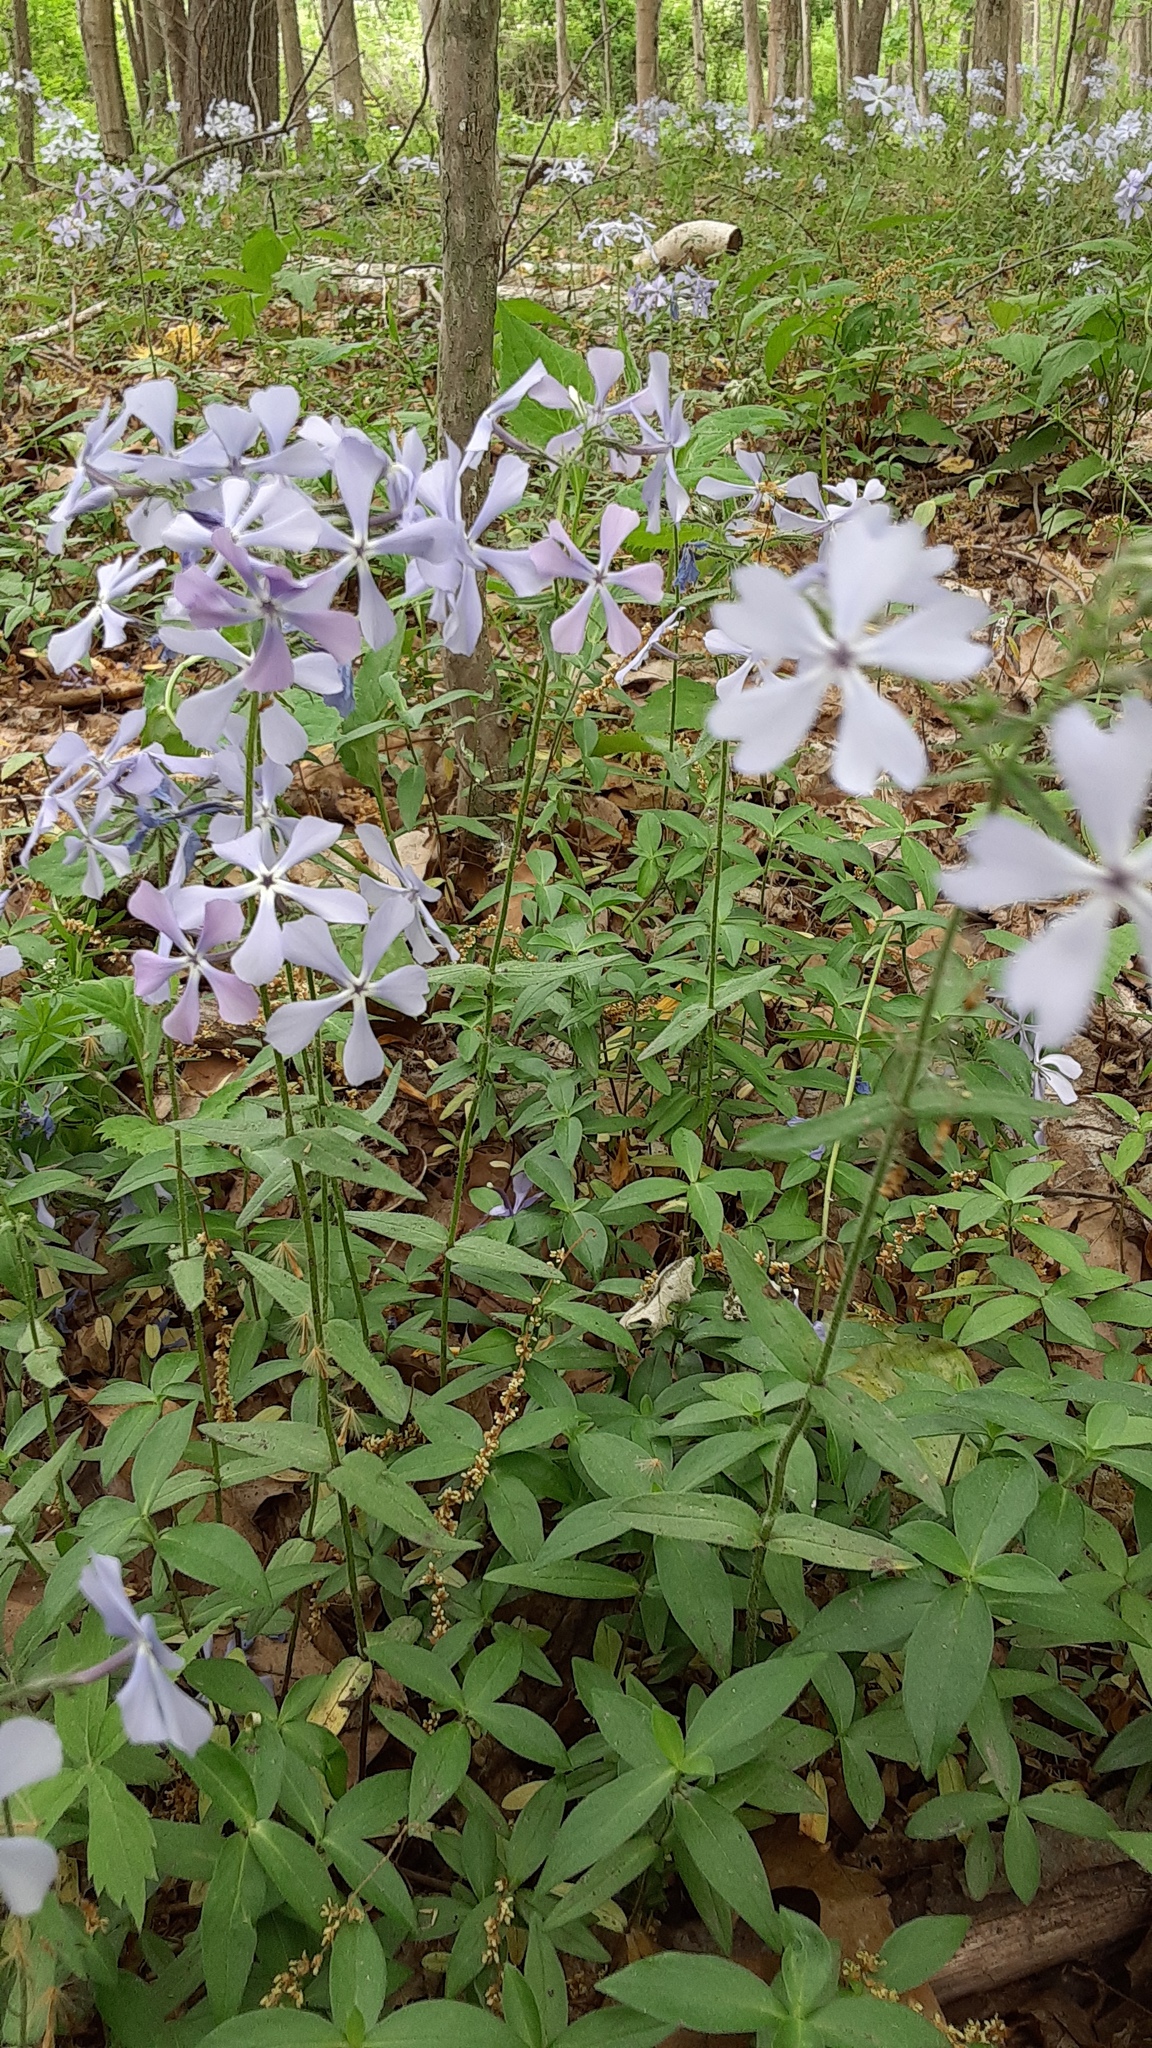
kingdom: Plantae
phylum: Tracheophyta
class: Magnoliopsida
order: Ericales
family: Polemoniaceae
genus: Phlox
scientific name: Phlox divaricata
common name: Blue phlox
